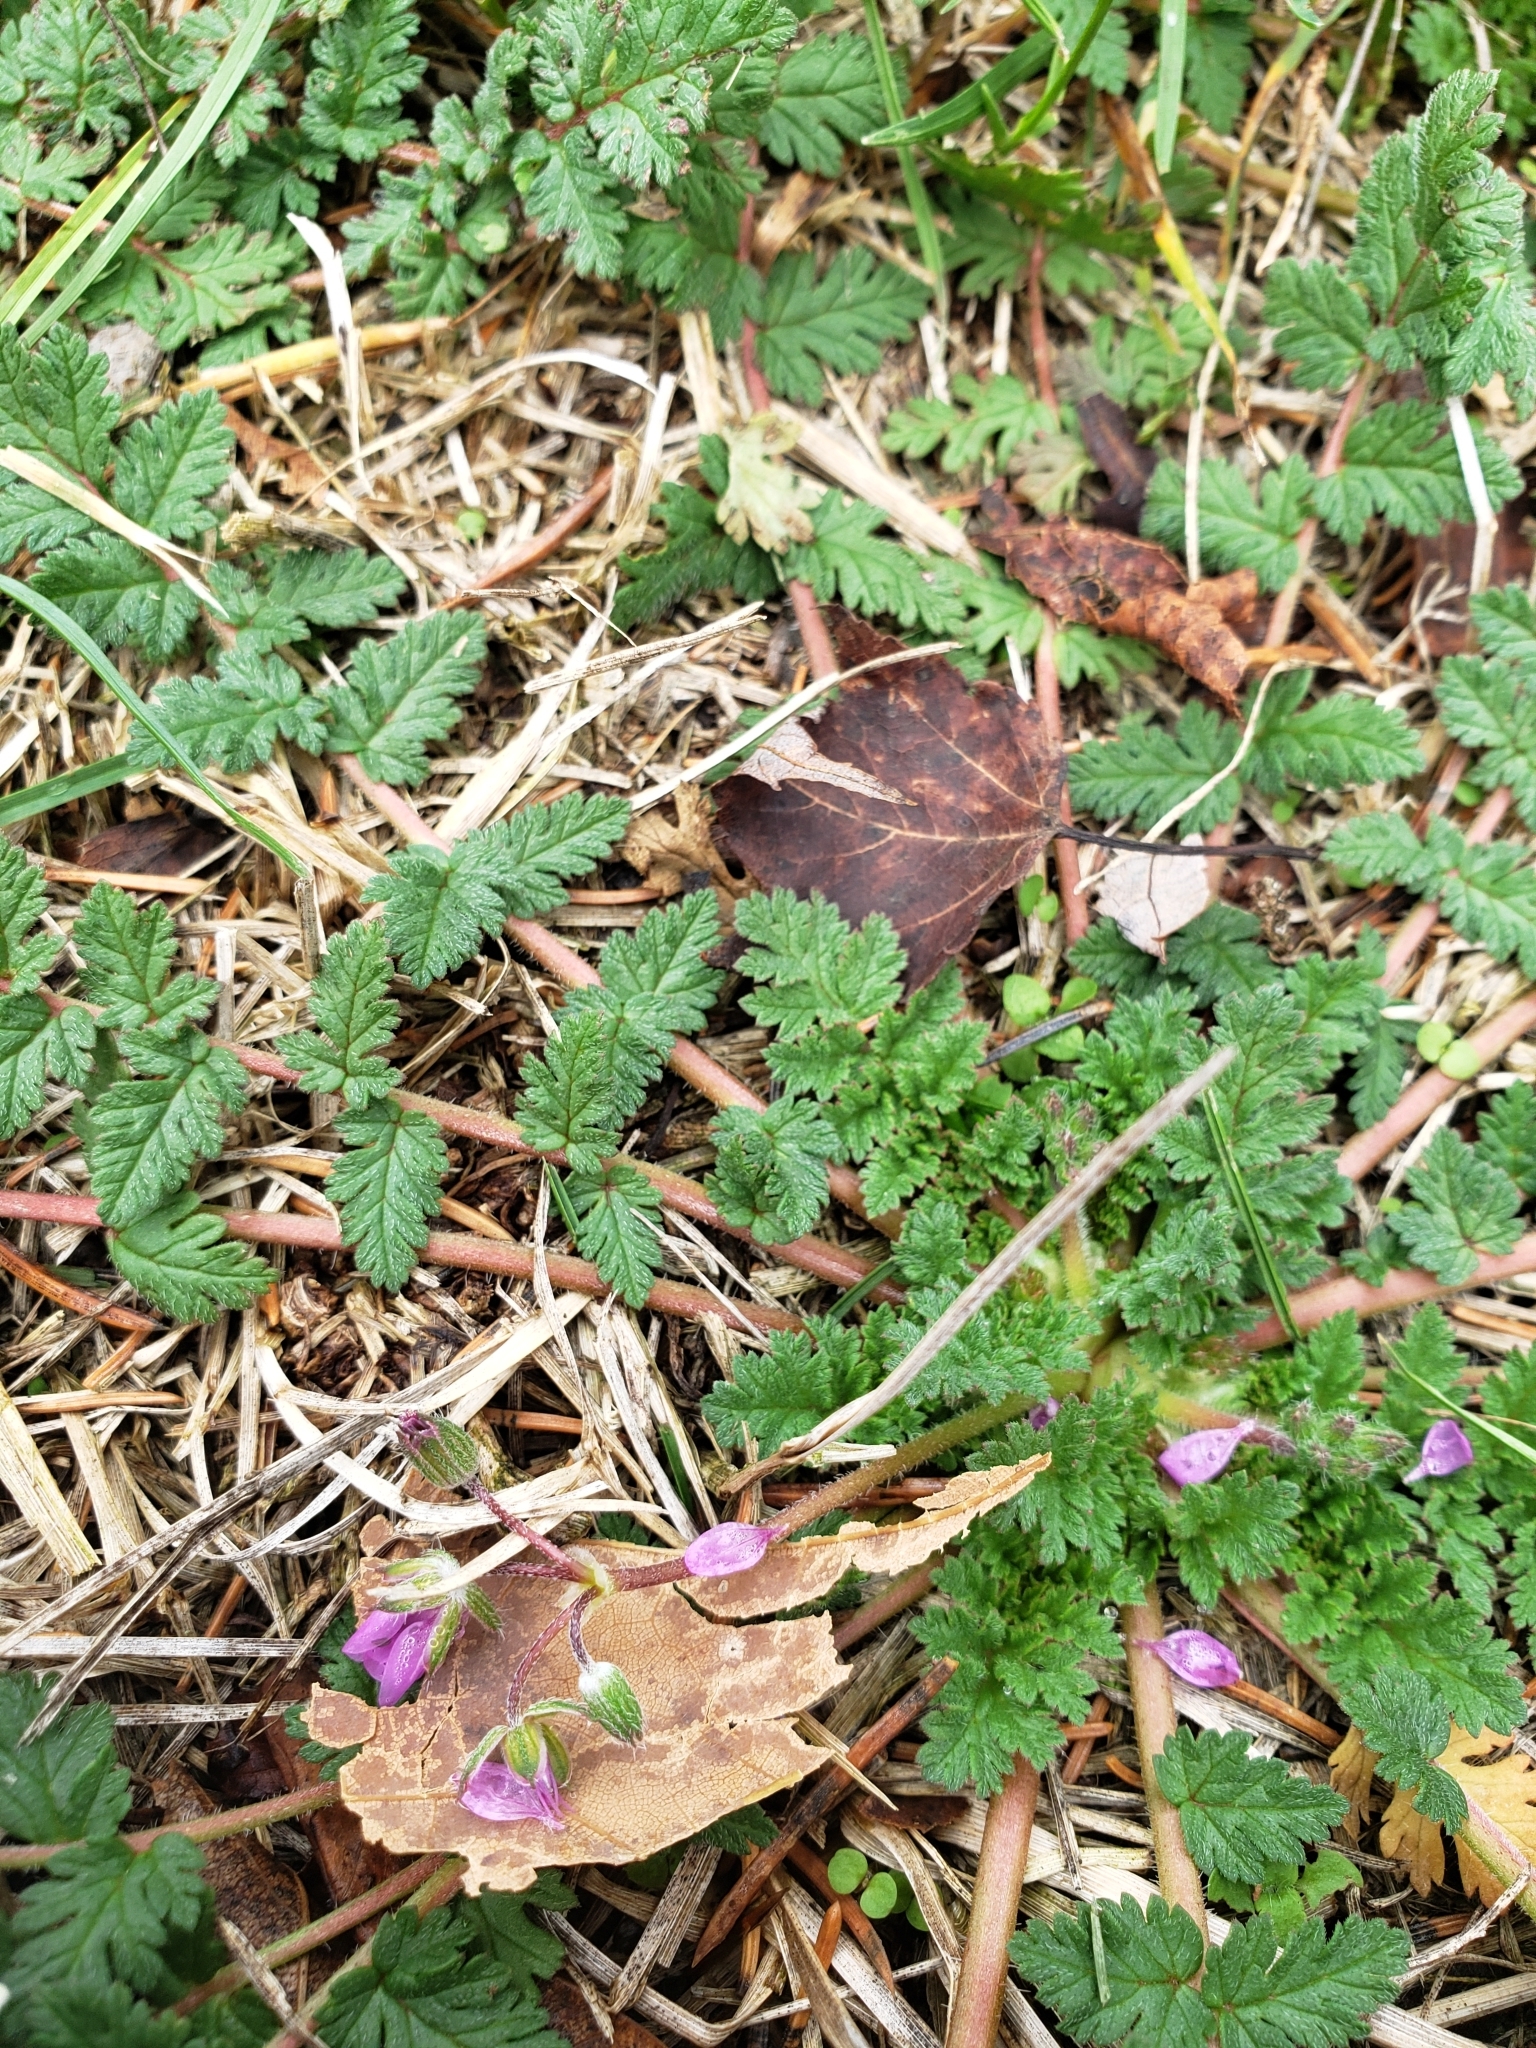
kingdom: Plantae
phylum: Tracheophyta
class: Magnoliopsida
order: Geraniales
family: Geraniaceae
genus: Erodium
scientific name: Erodium cicutarium
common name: Common stork's-bill
